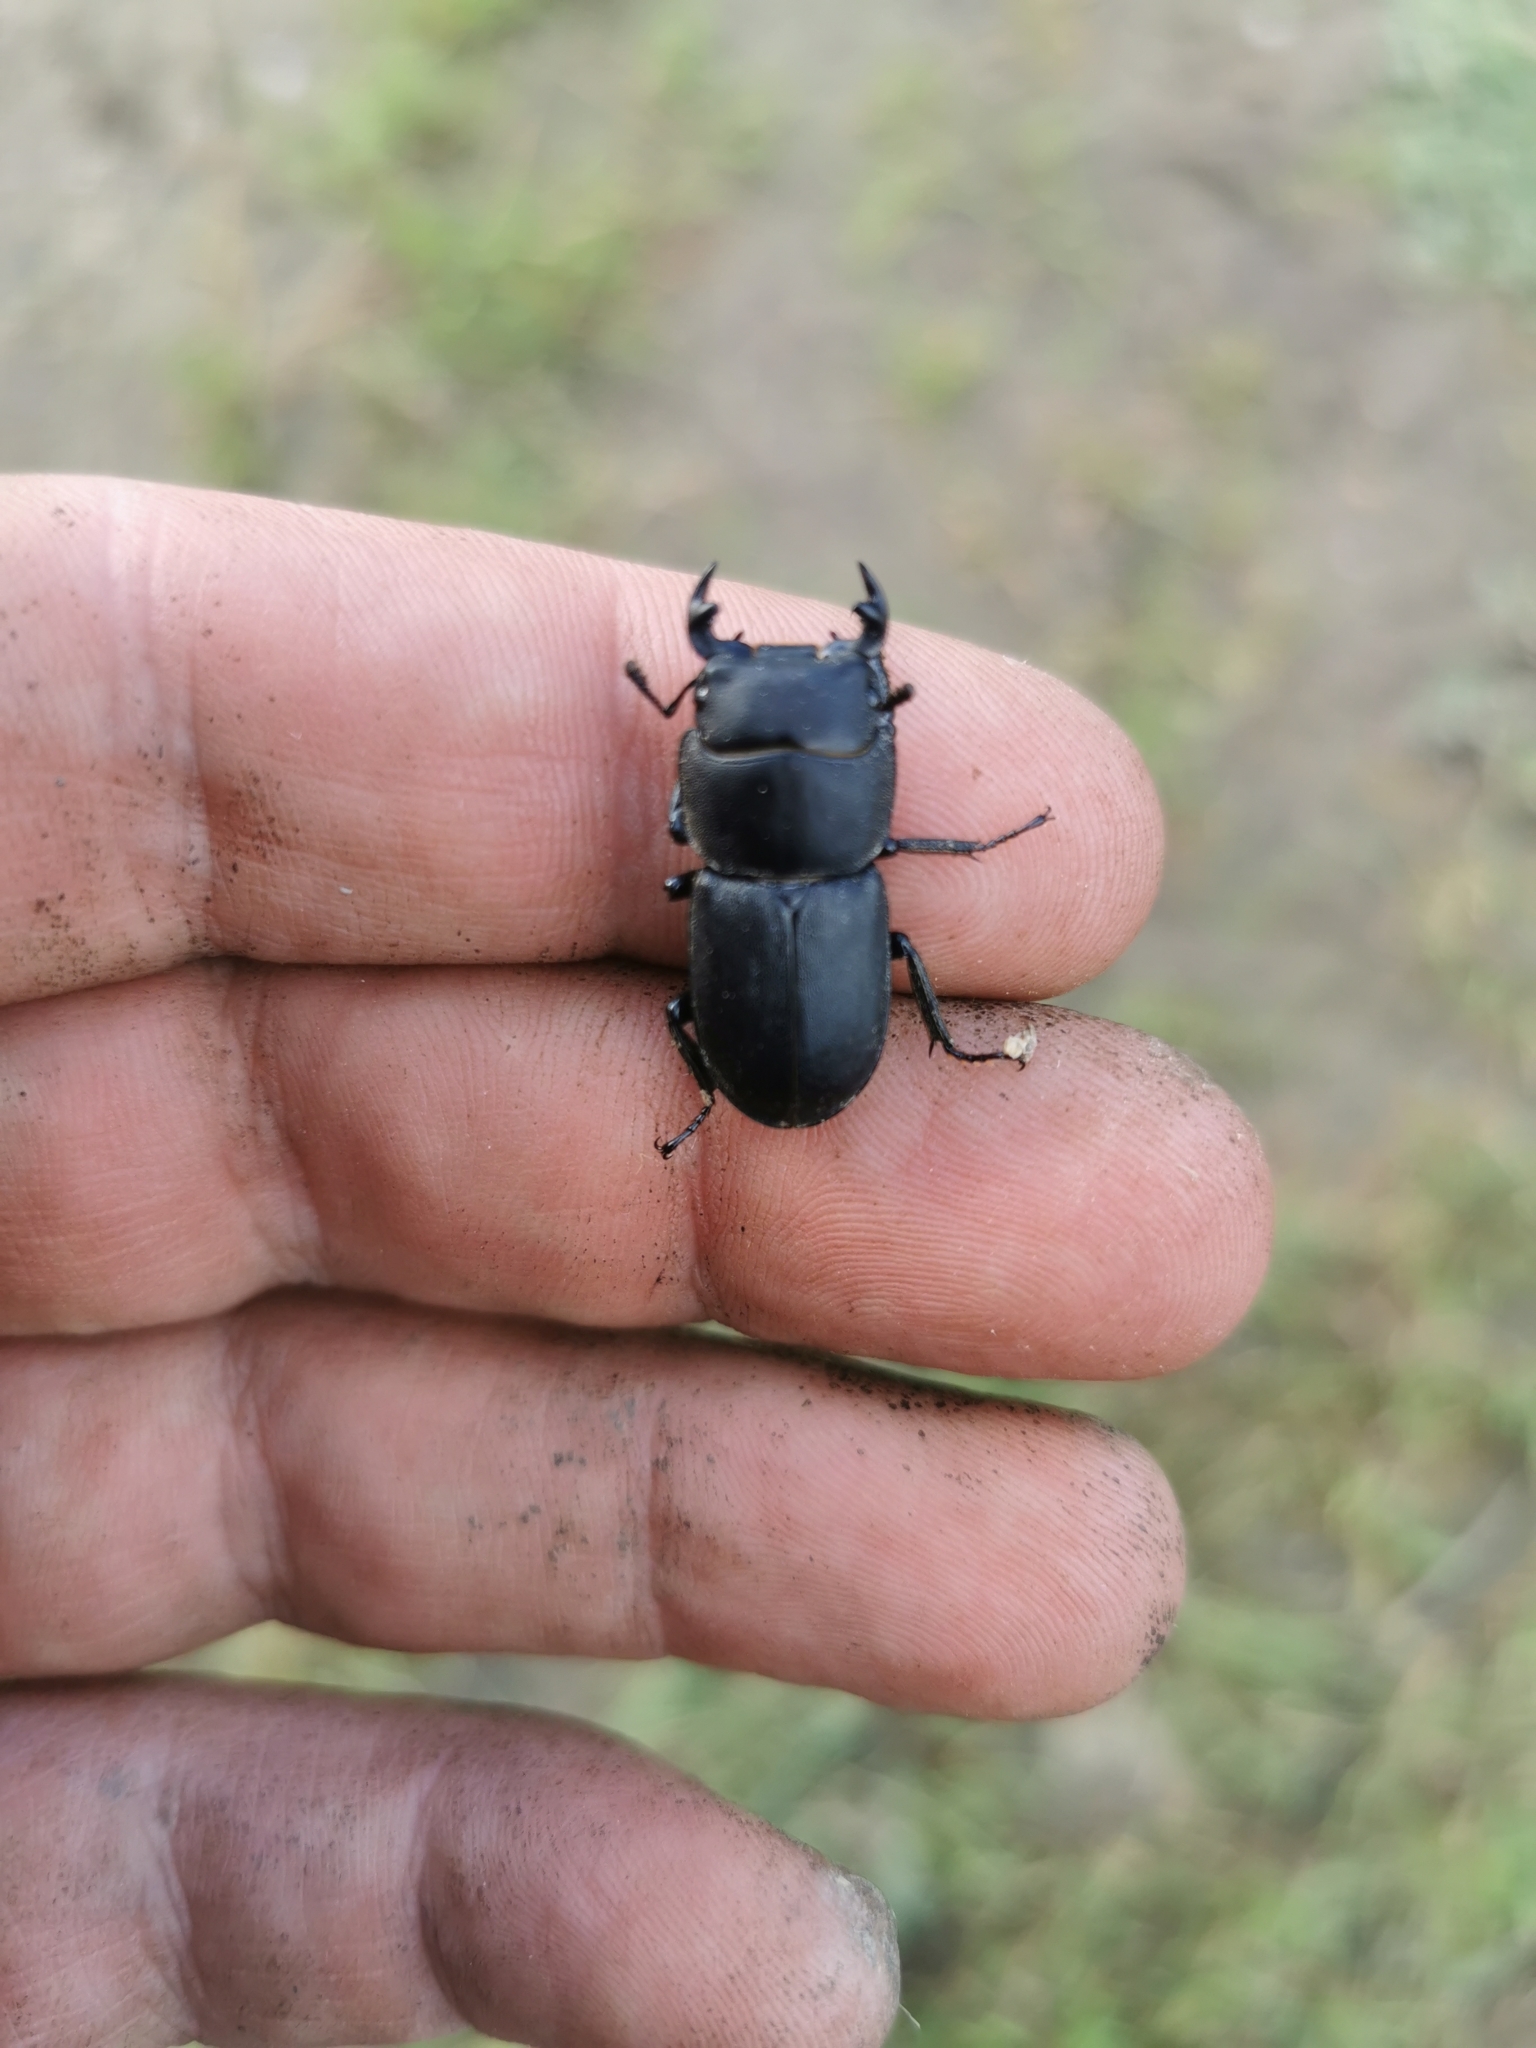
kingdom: Animalia
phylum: Arthropoda
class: Insecta
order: Coleoptera
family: Lucanidae
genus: Dorcus
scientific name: Dorcus parallelipipedus
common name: Lesser stag beetle
